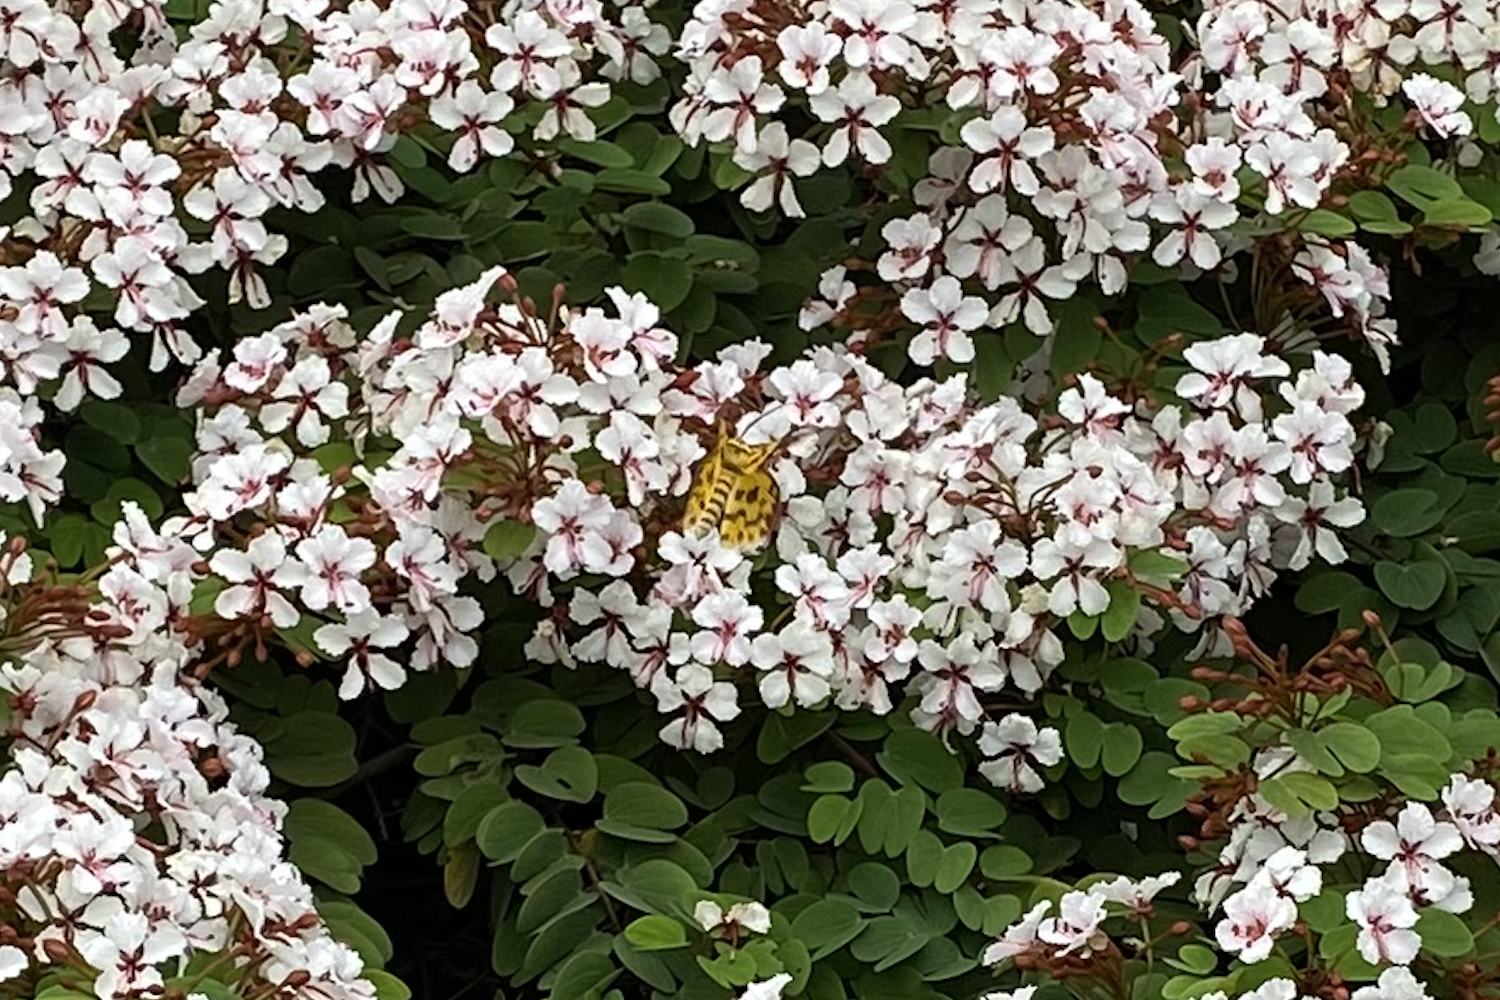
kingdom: Animalia
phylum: Arthropoda
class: Insecta
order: Lepidoptera
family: Geometridae
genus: Dysphania
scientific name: Dysphania militaris
